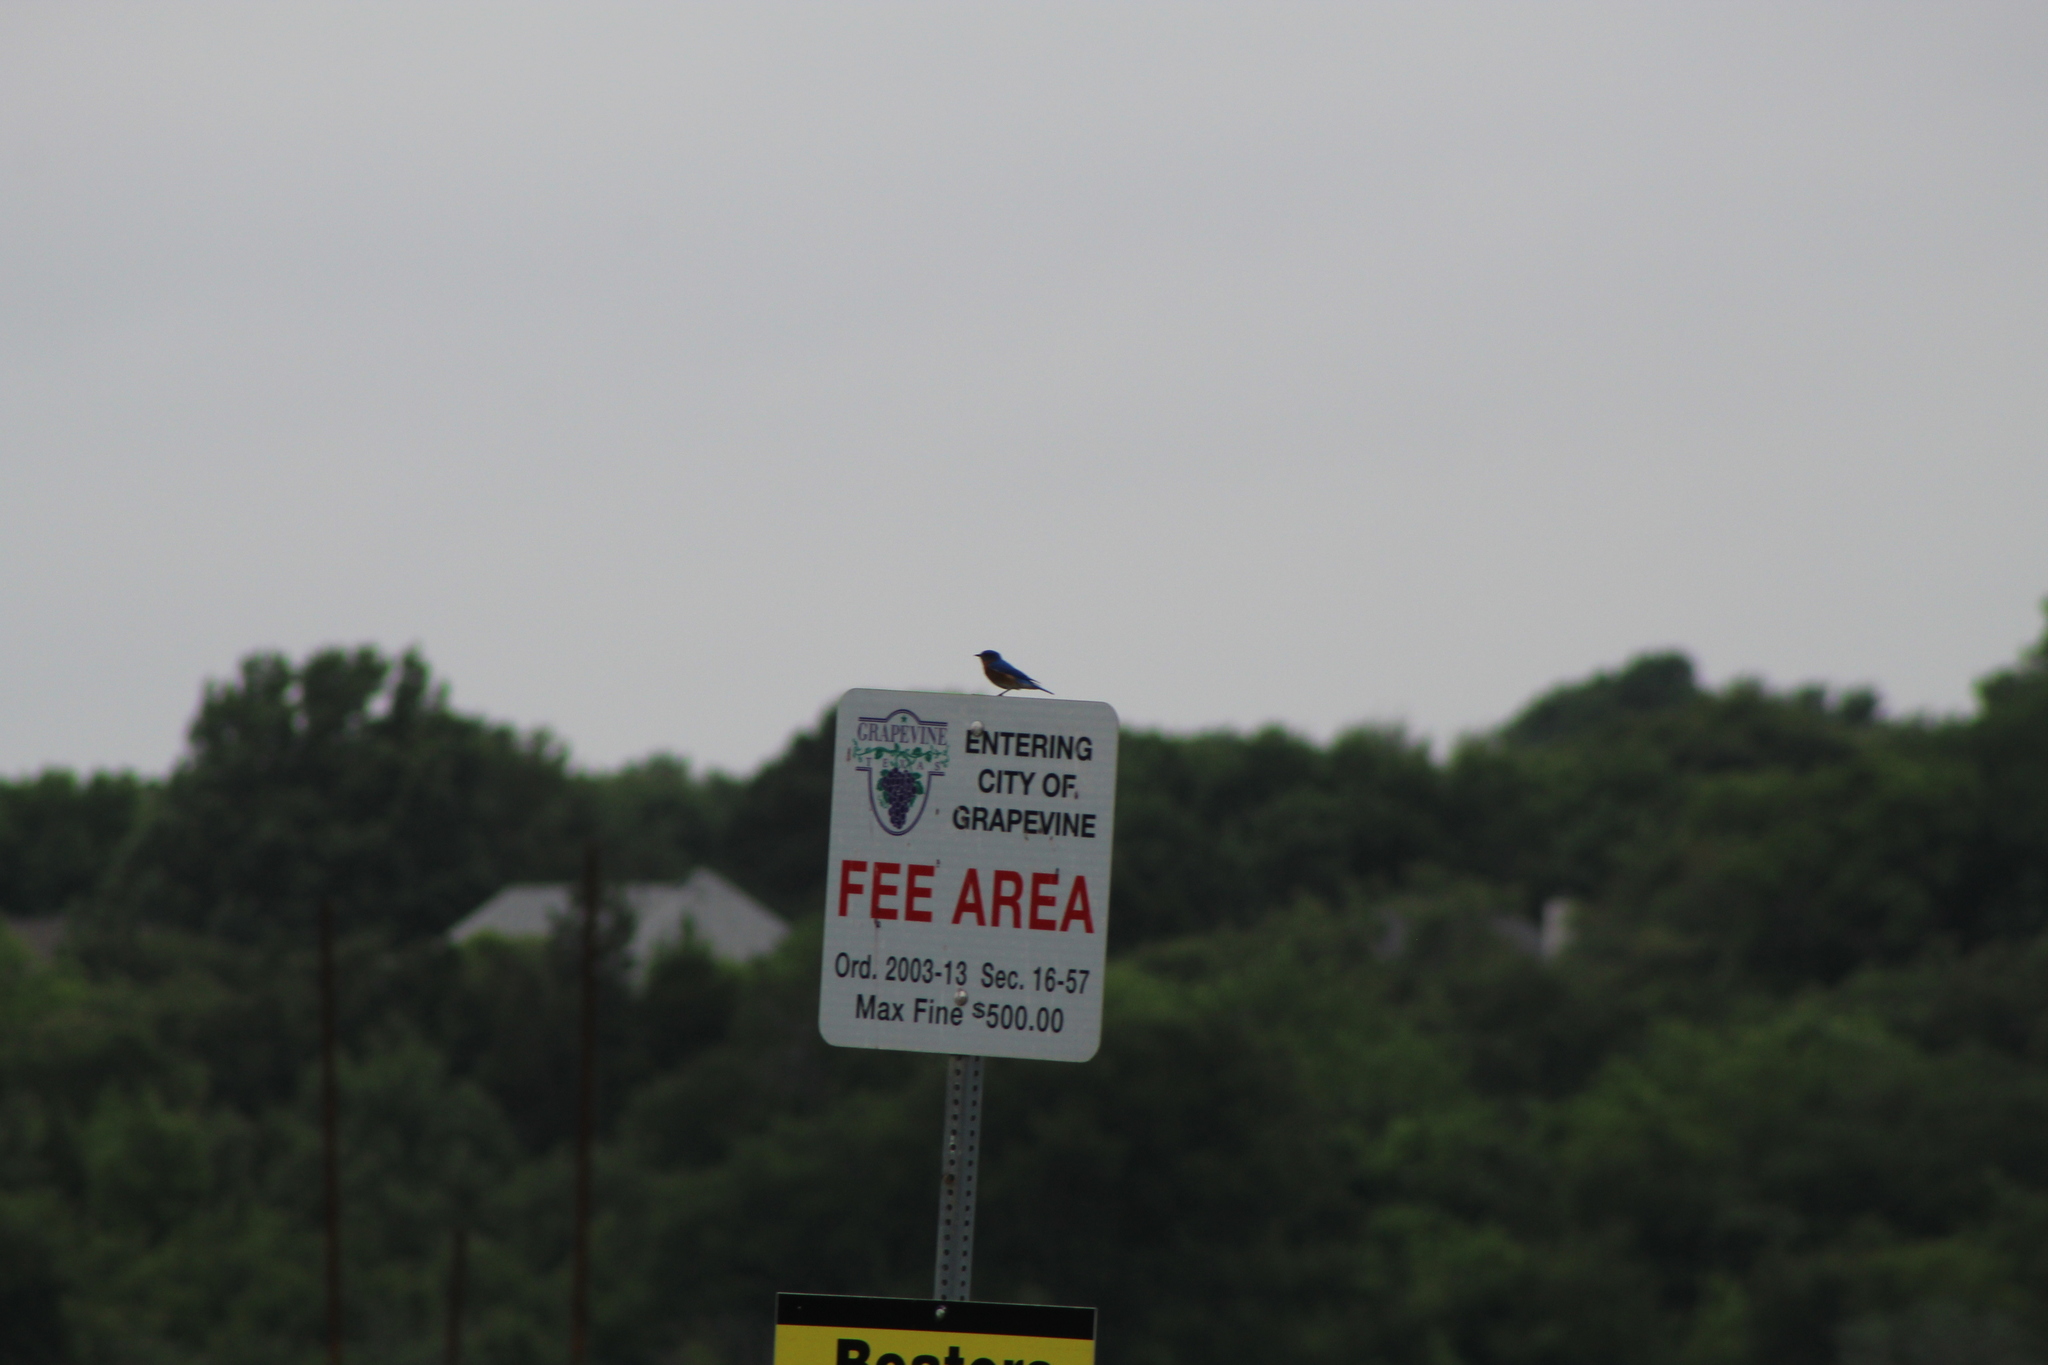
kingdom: Animalia
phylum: Chordata
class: Aves
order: Passeriformes
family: Turdidae
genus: Sialia
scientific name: Sialia sialis
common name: Eastern bluebird
